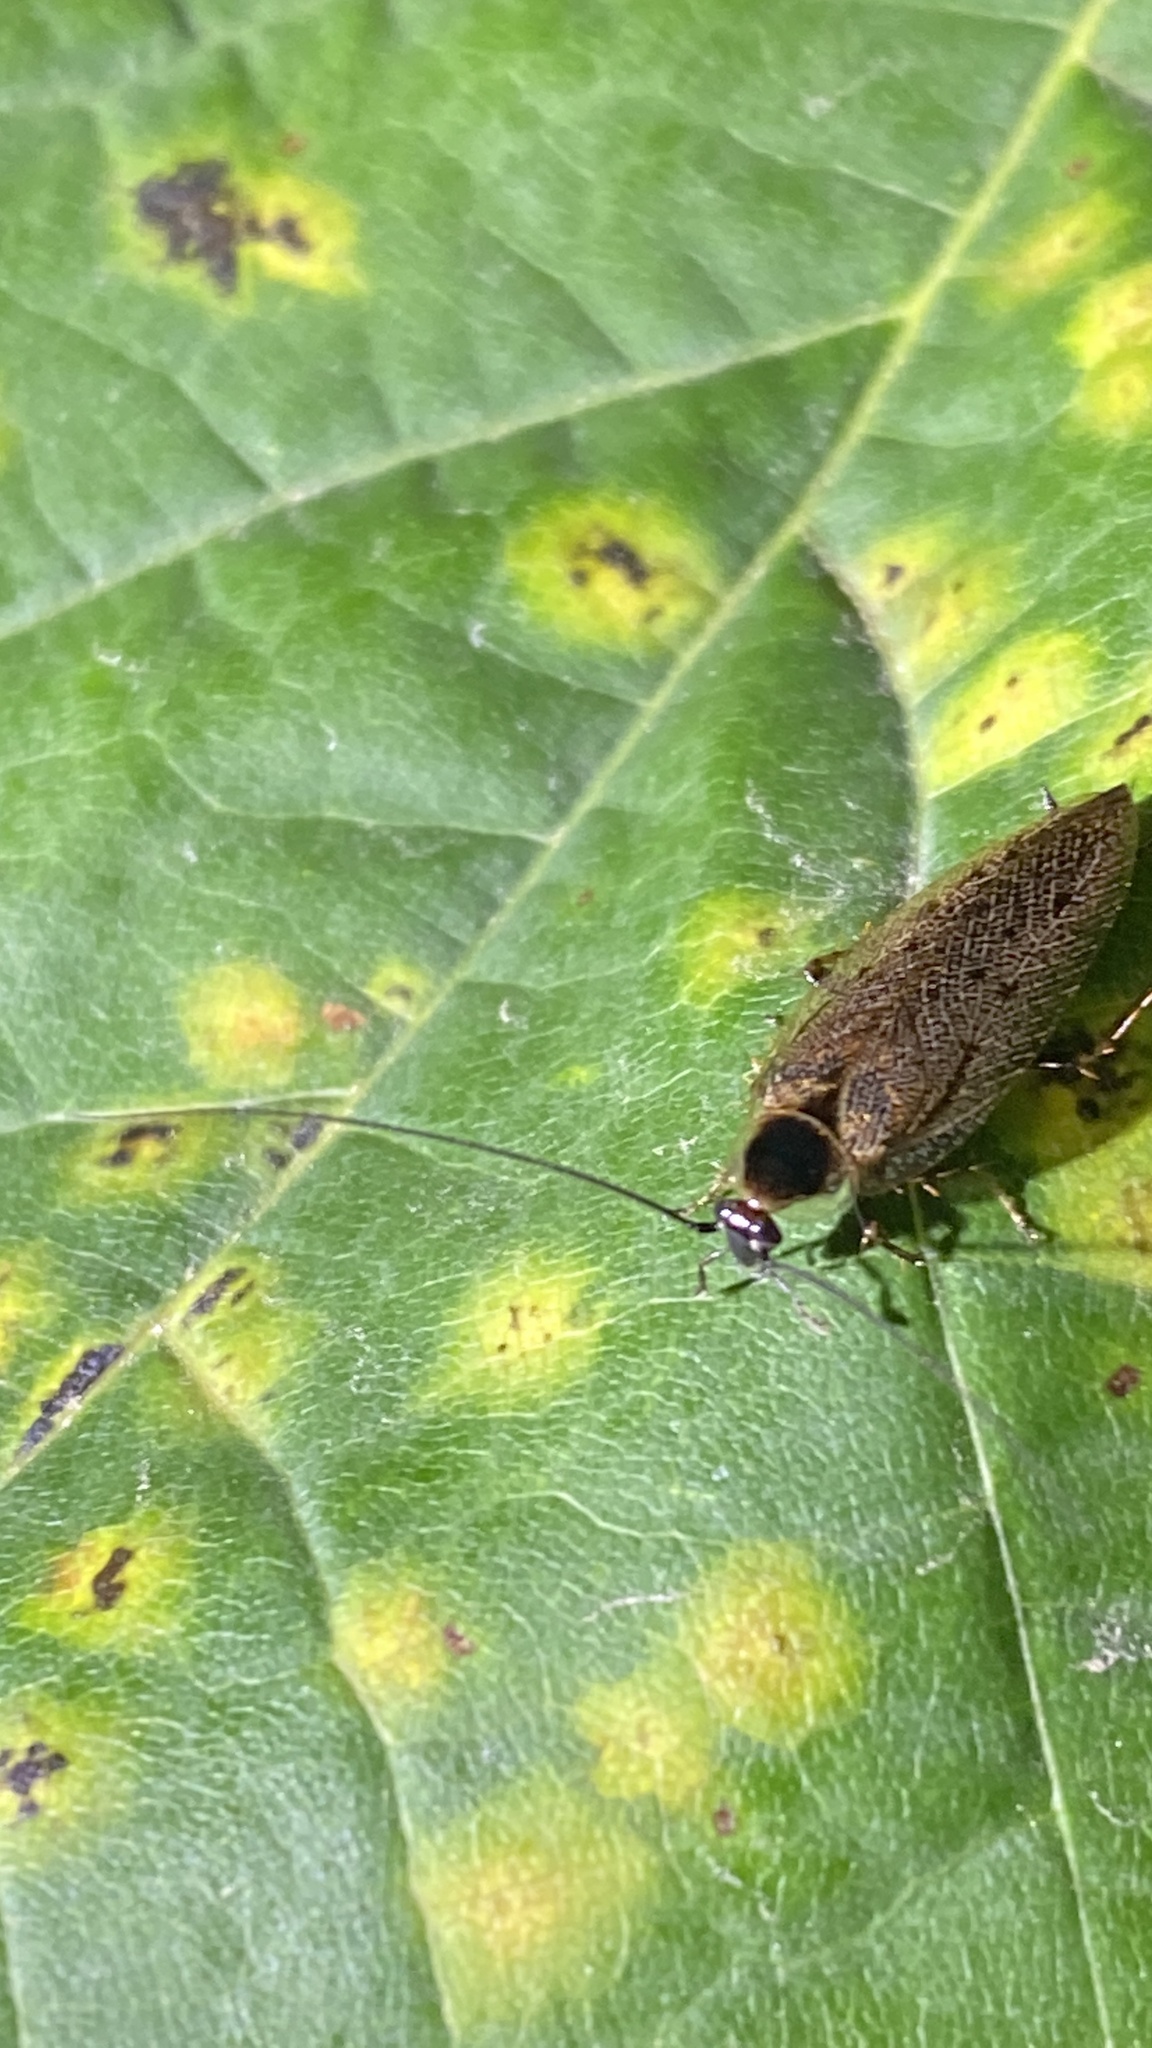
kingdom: Animalia
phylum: Arthropoda
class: Insecta
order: Blattodea
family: Ectobiidae
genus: Ectobius
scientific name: Ectobius lapponicus
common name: Dusky cockroach
